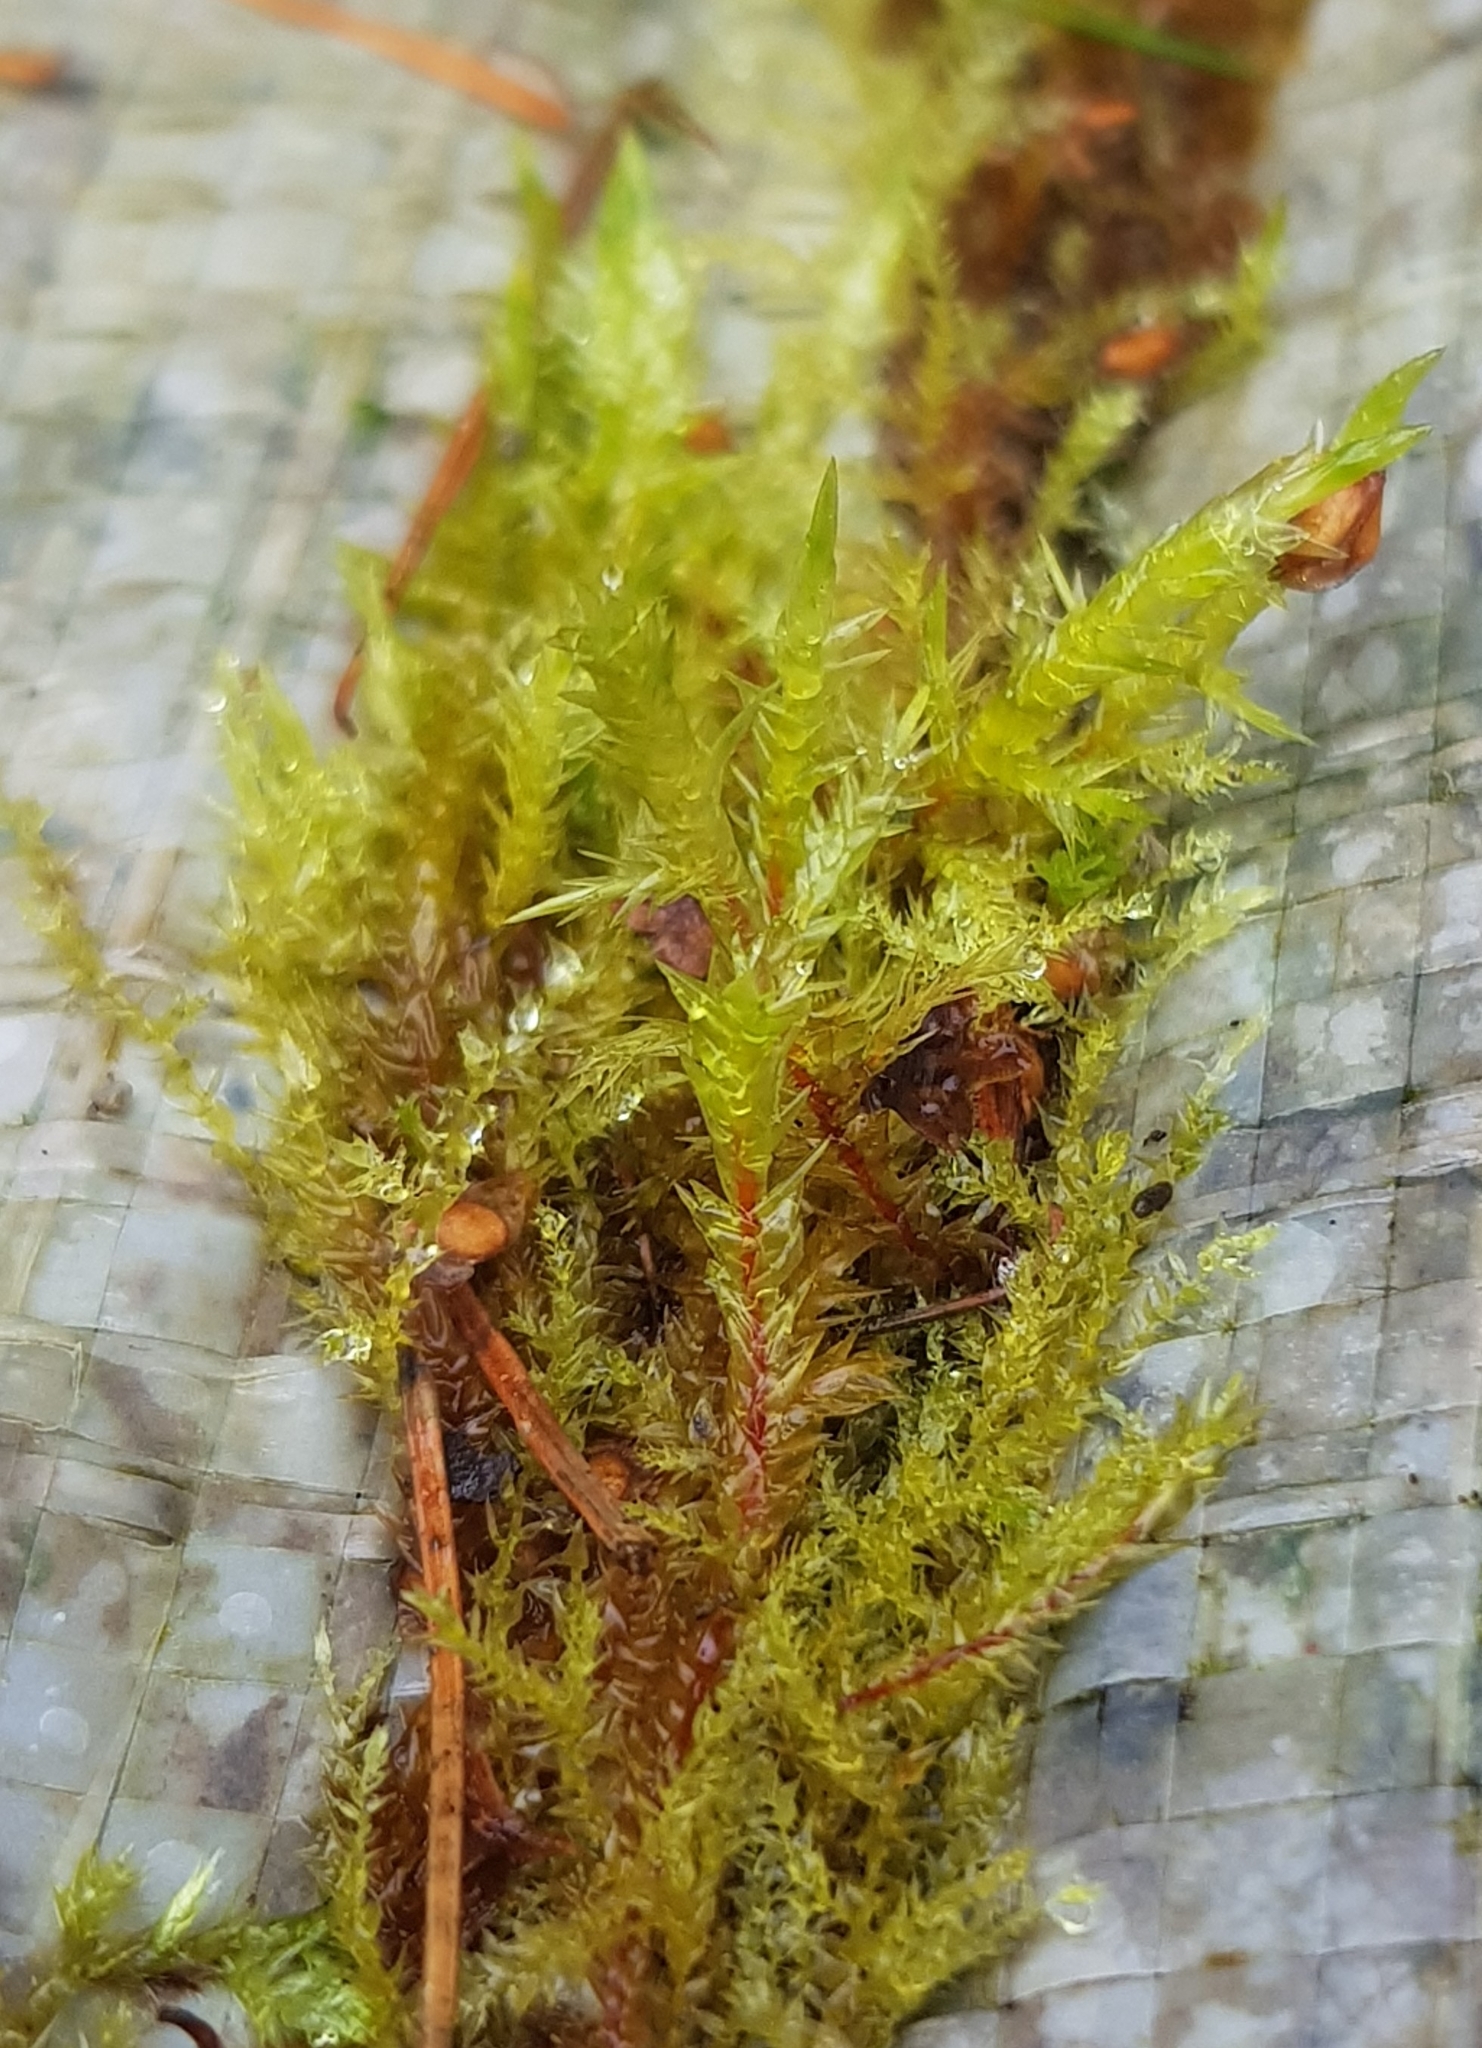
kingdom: Plantae
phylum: Bryophyta
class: Bryopsida
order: Hypnales
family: Pylaisiaceae
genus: Calliergonella
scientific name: Calliergonella cuspidata
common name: Common large wetland moss
